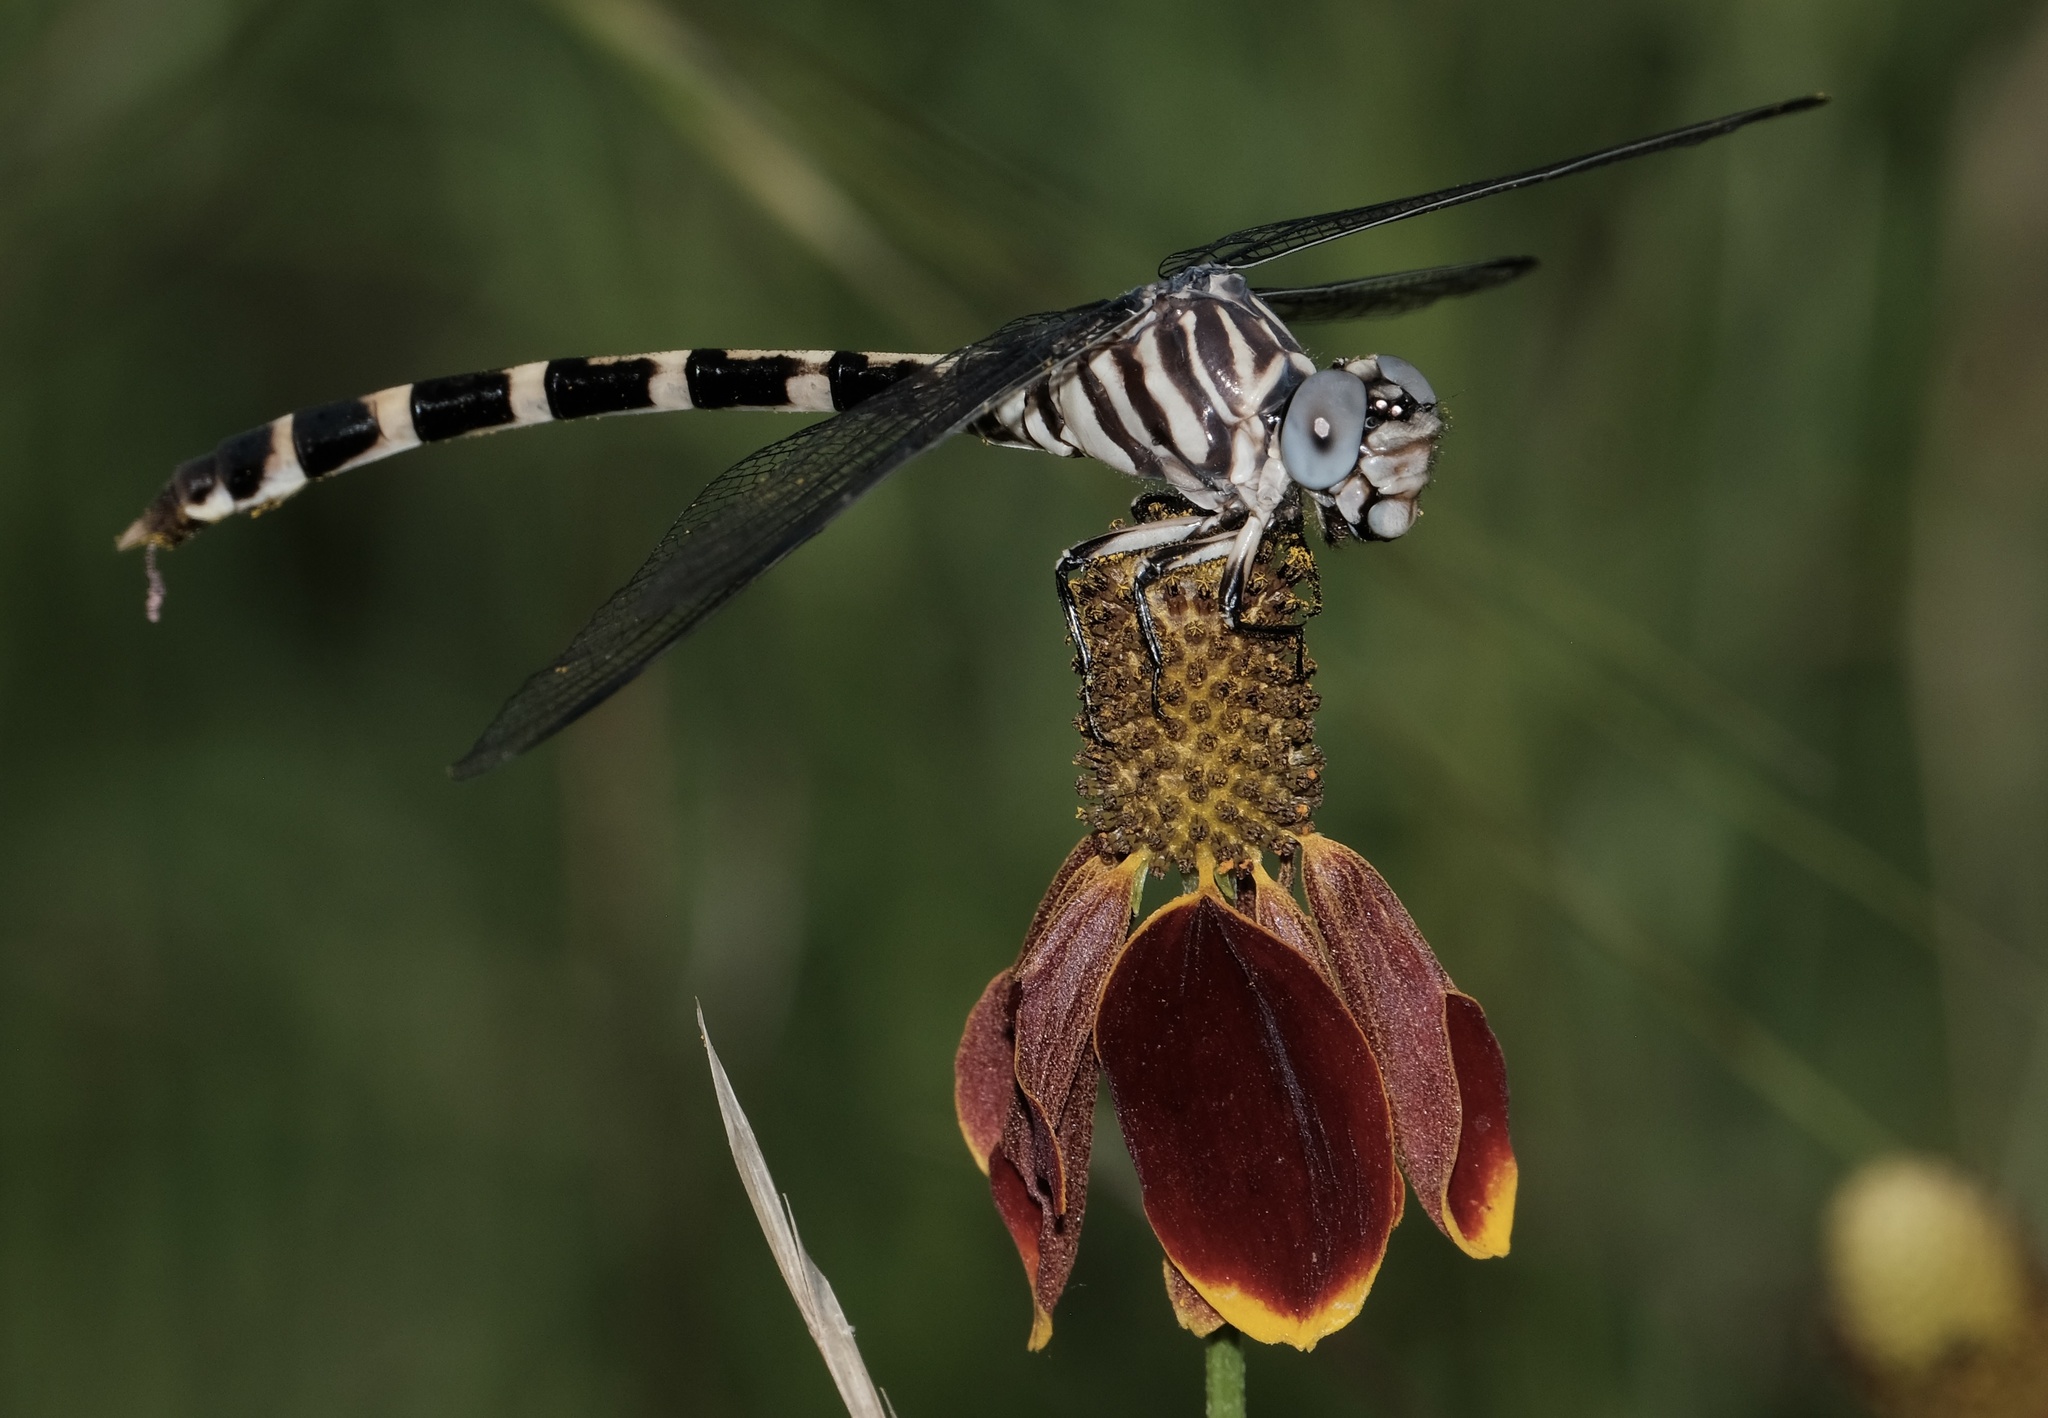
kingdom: Animalia
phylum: Arthropoda
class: Insecta
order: Odonata
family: Gomphidae
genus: Phyllogomphoides
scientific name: Phyllogomphoides stigmatus
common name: Four-striped leaftail
